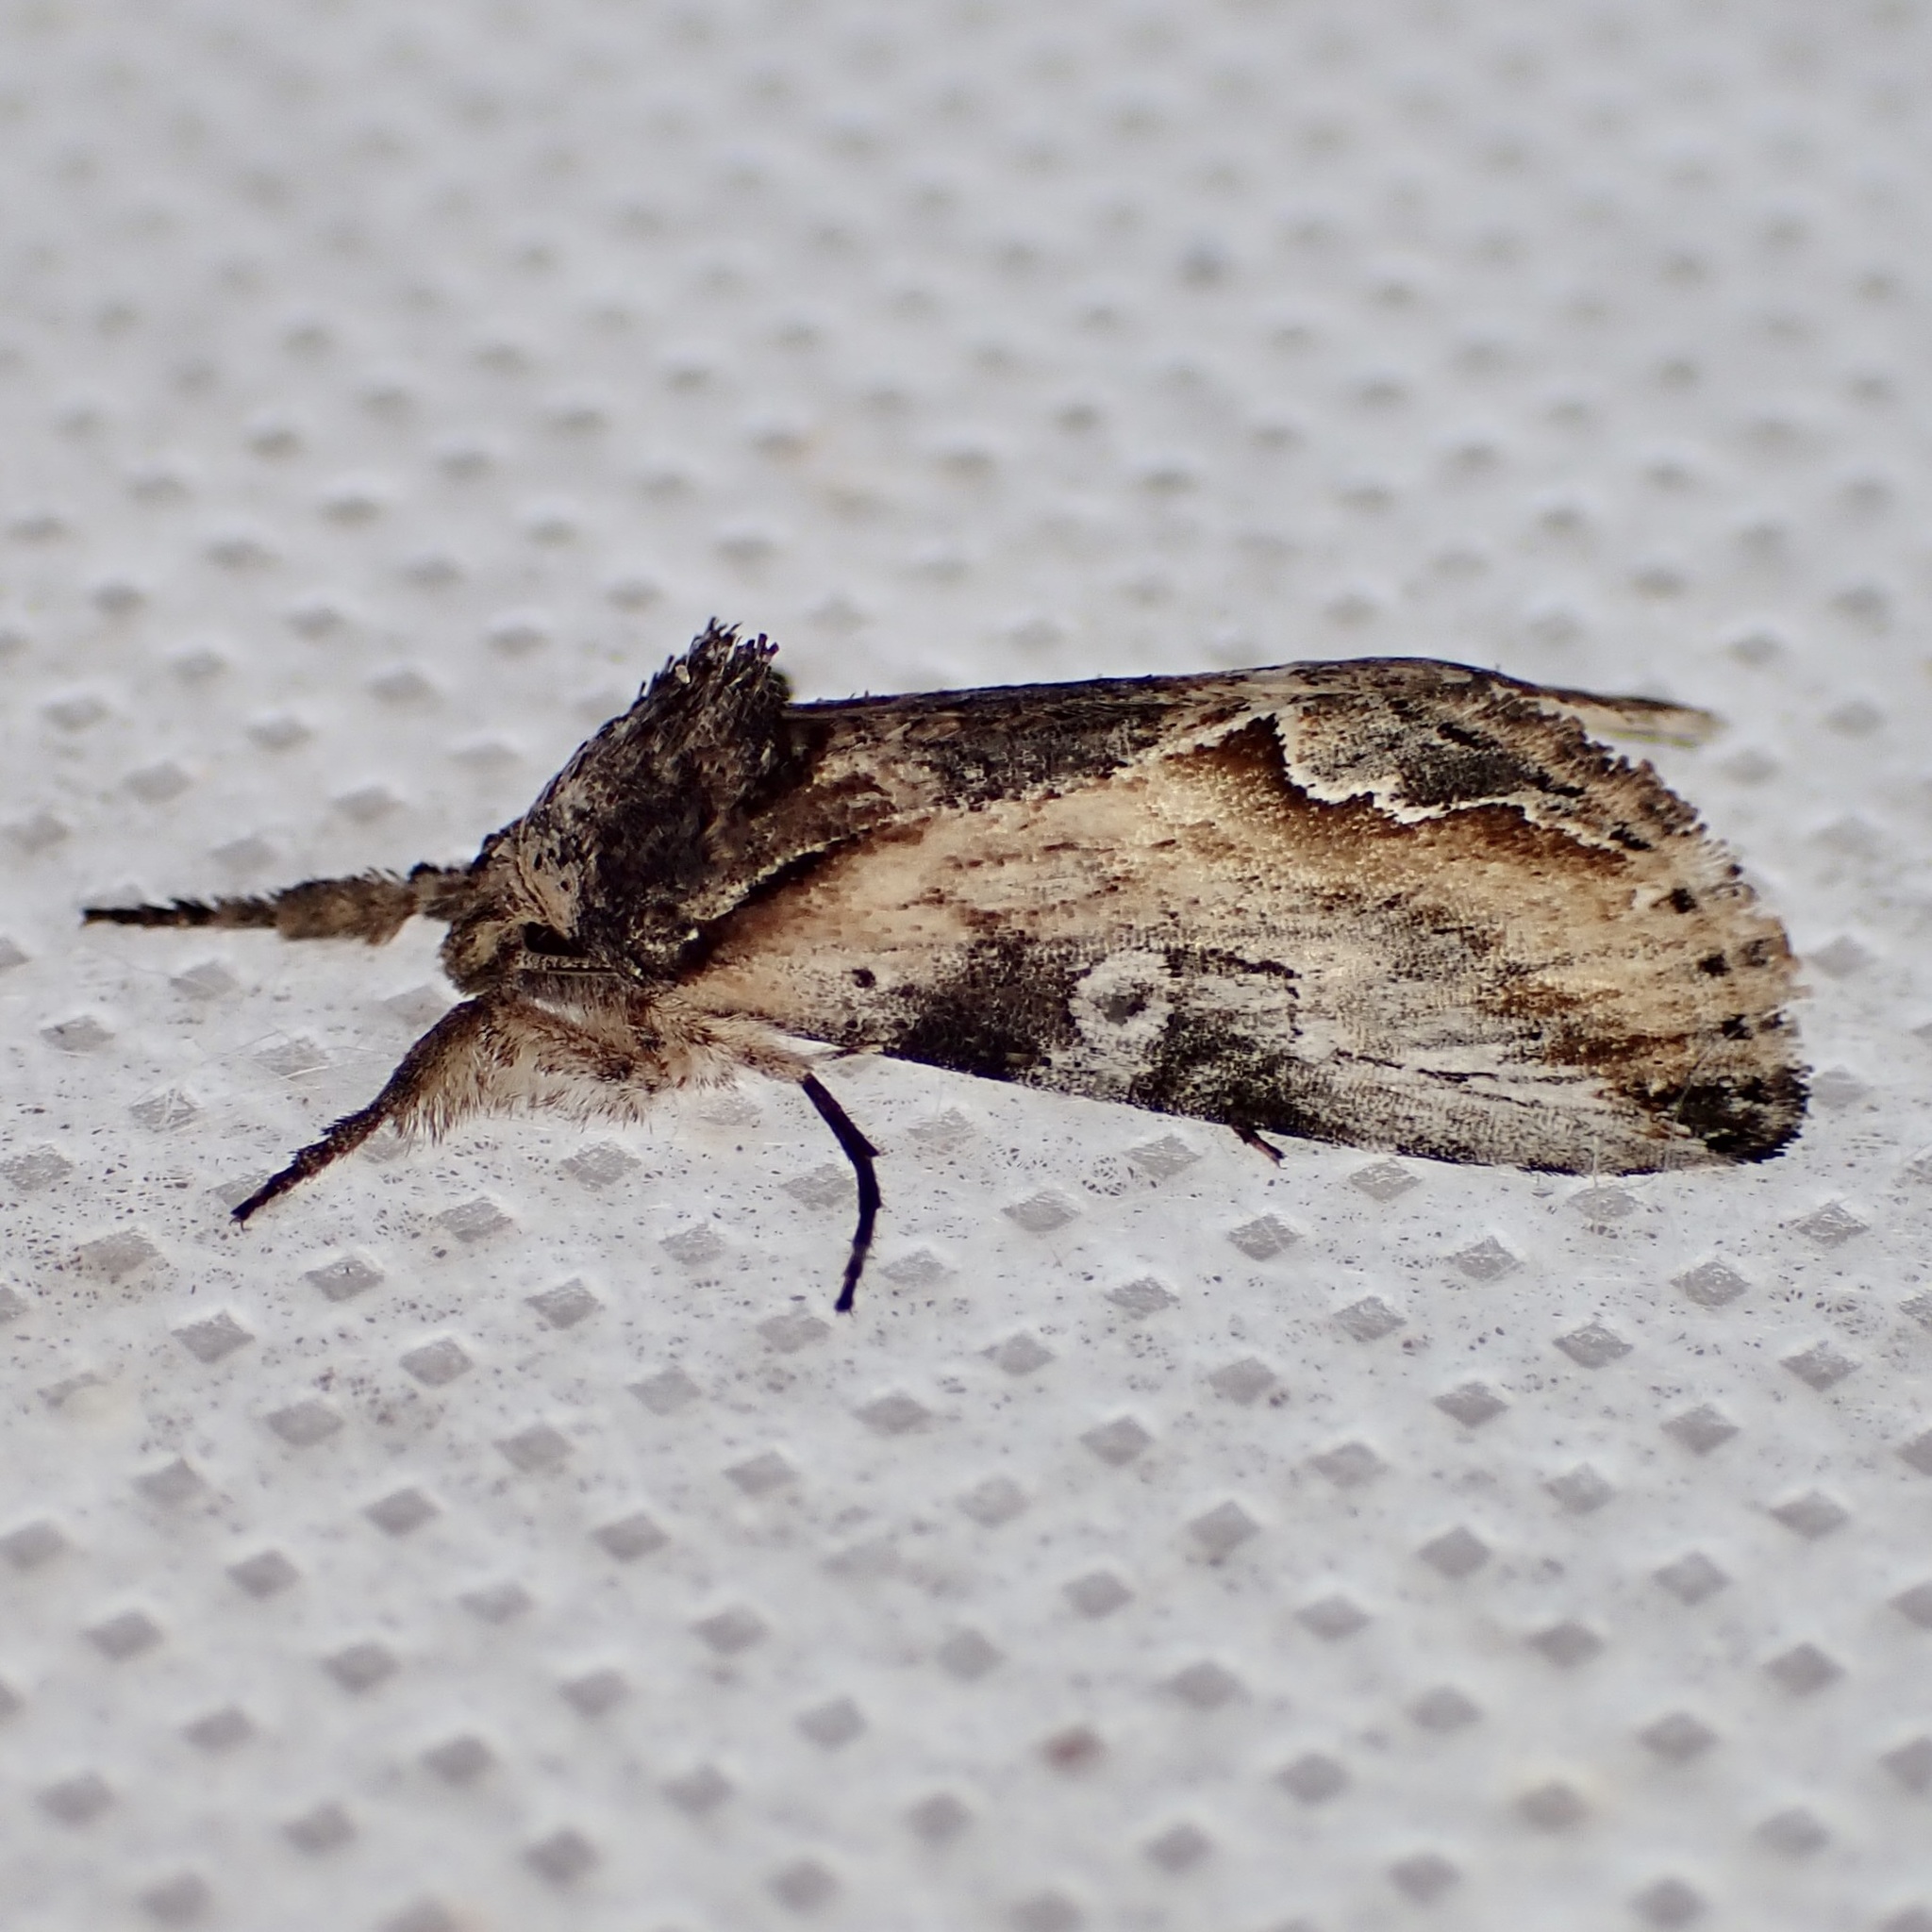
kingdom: Animalia
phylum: Arthropoda
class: Insecta
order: Lepidoptera
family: Noctuidae
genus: Prothrinax
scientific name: Prothrinax luteomedia
